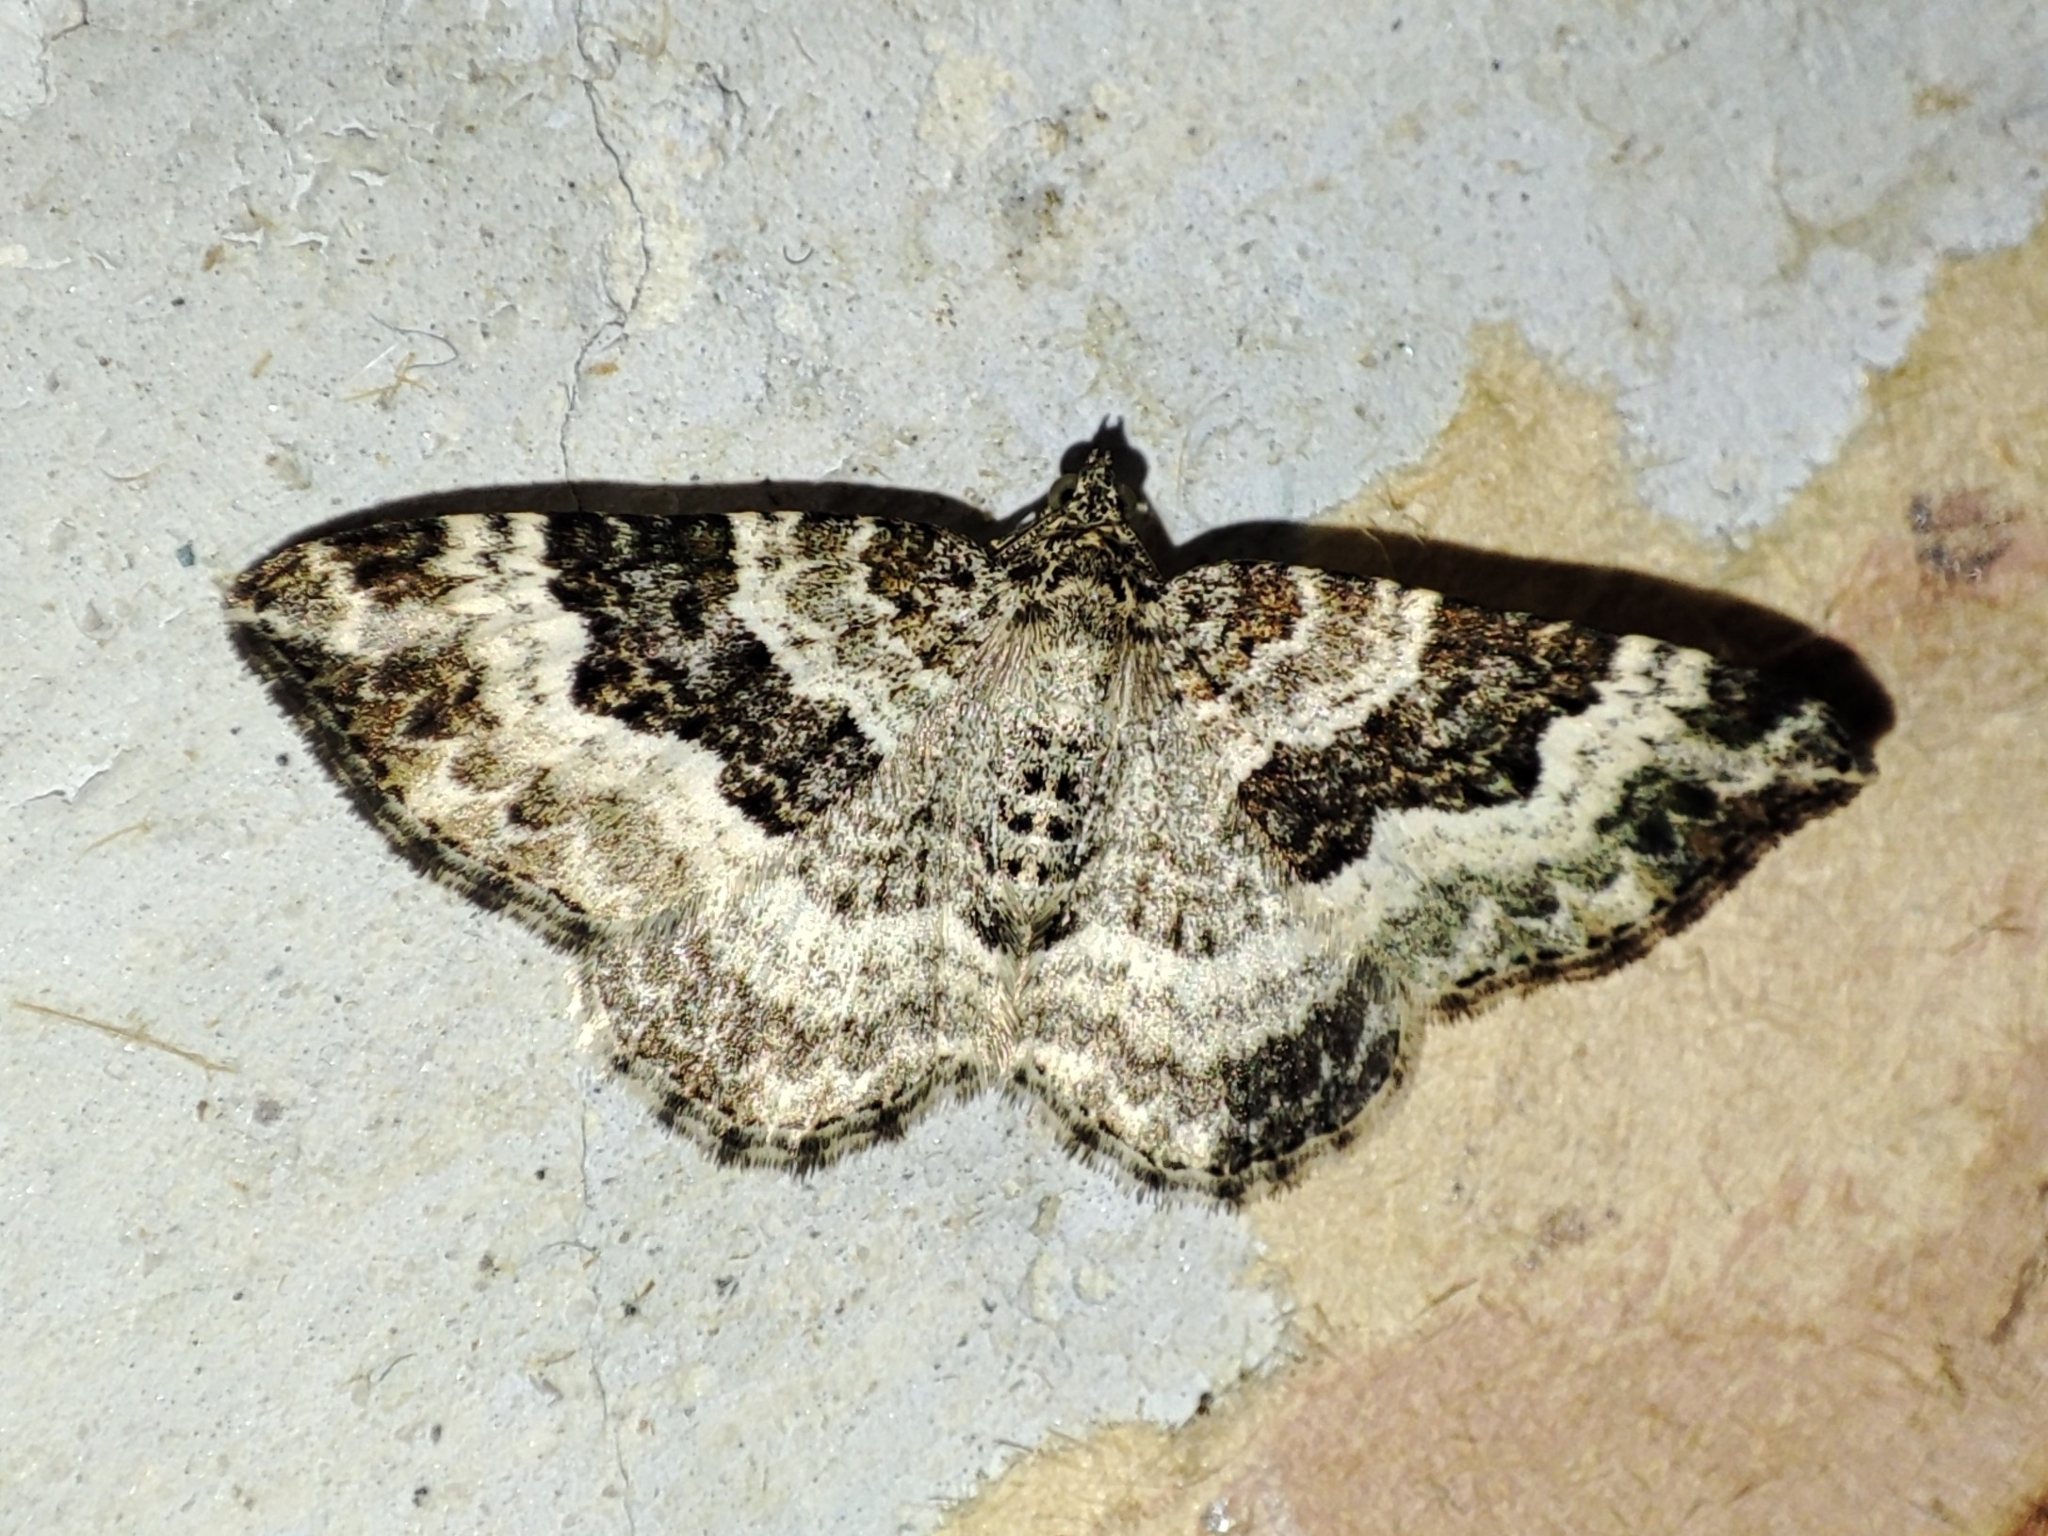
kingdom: Animalia
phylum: Arthropoda
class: Insecta
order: Lepidoptera
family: Geometridae
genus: Epirrhoe
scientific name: Epirrhoe alternata
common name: Common carpet
